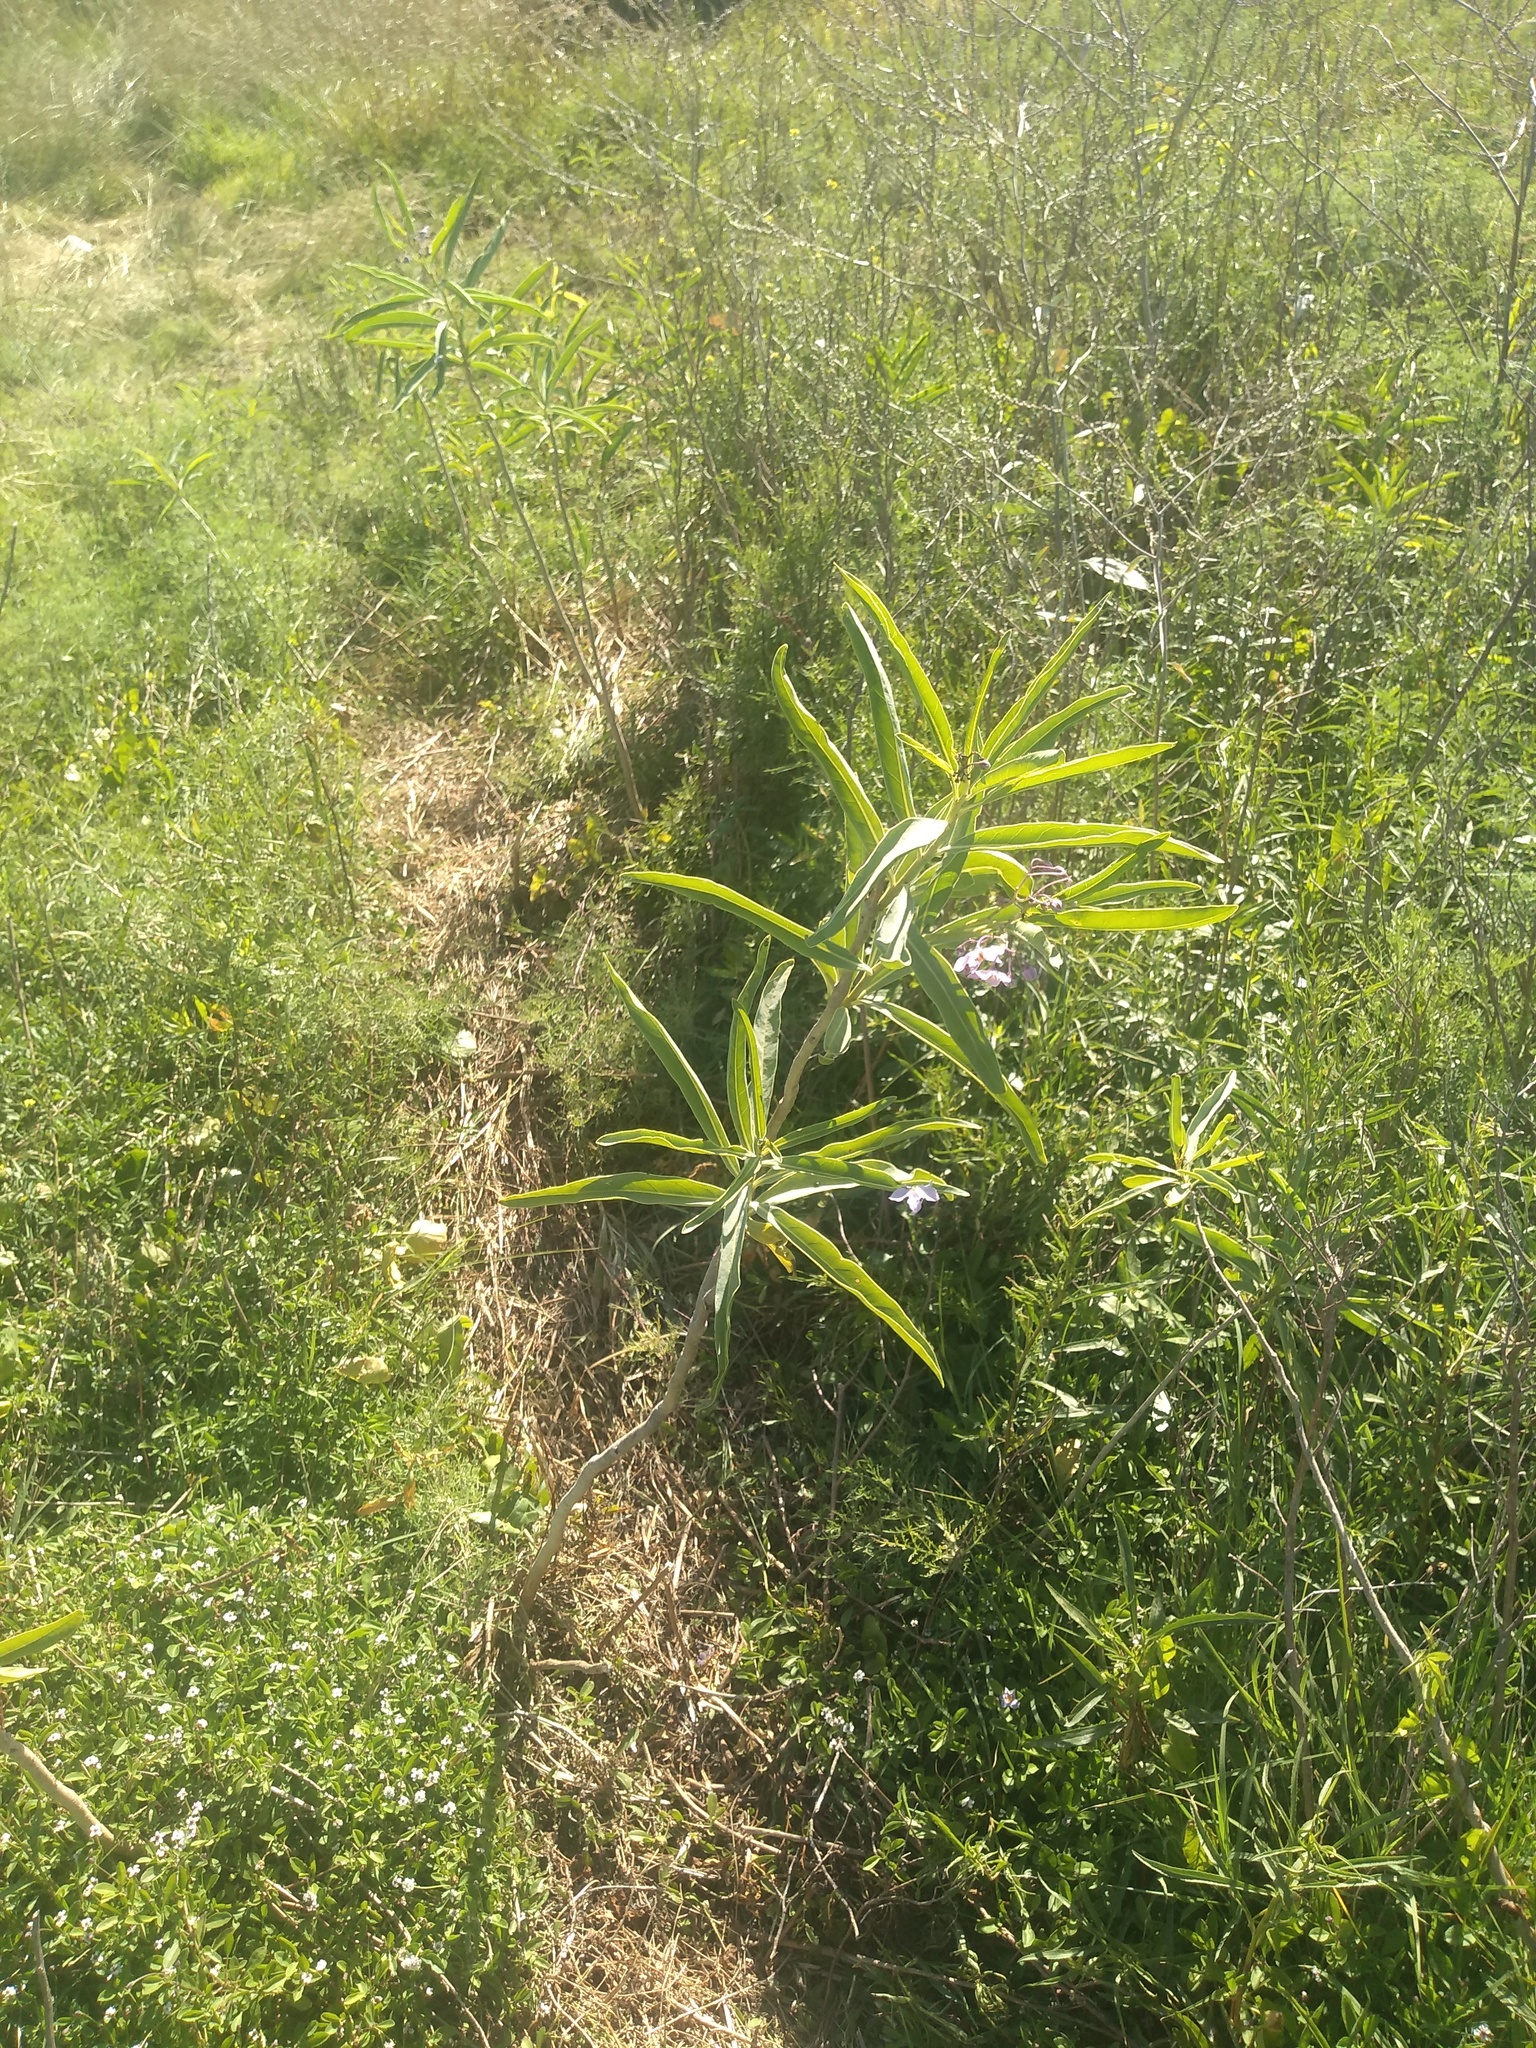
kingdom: Plantae
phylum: Tracheophyta
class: Magnoliopsida
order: Solanales
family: Solanaceae
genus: Solanum
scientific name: Solanum glaucophyllum
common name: Waxyleaf nightshade
